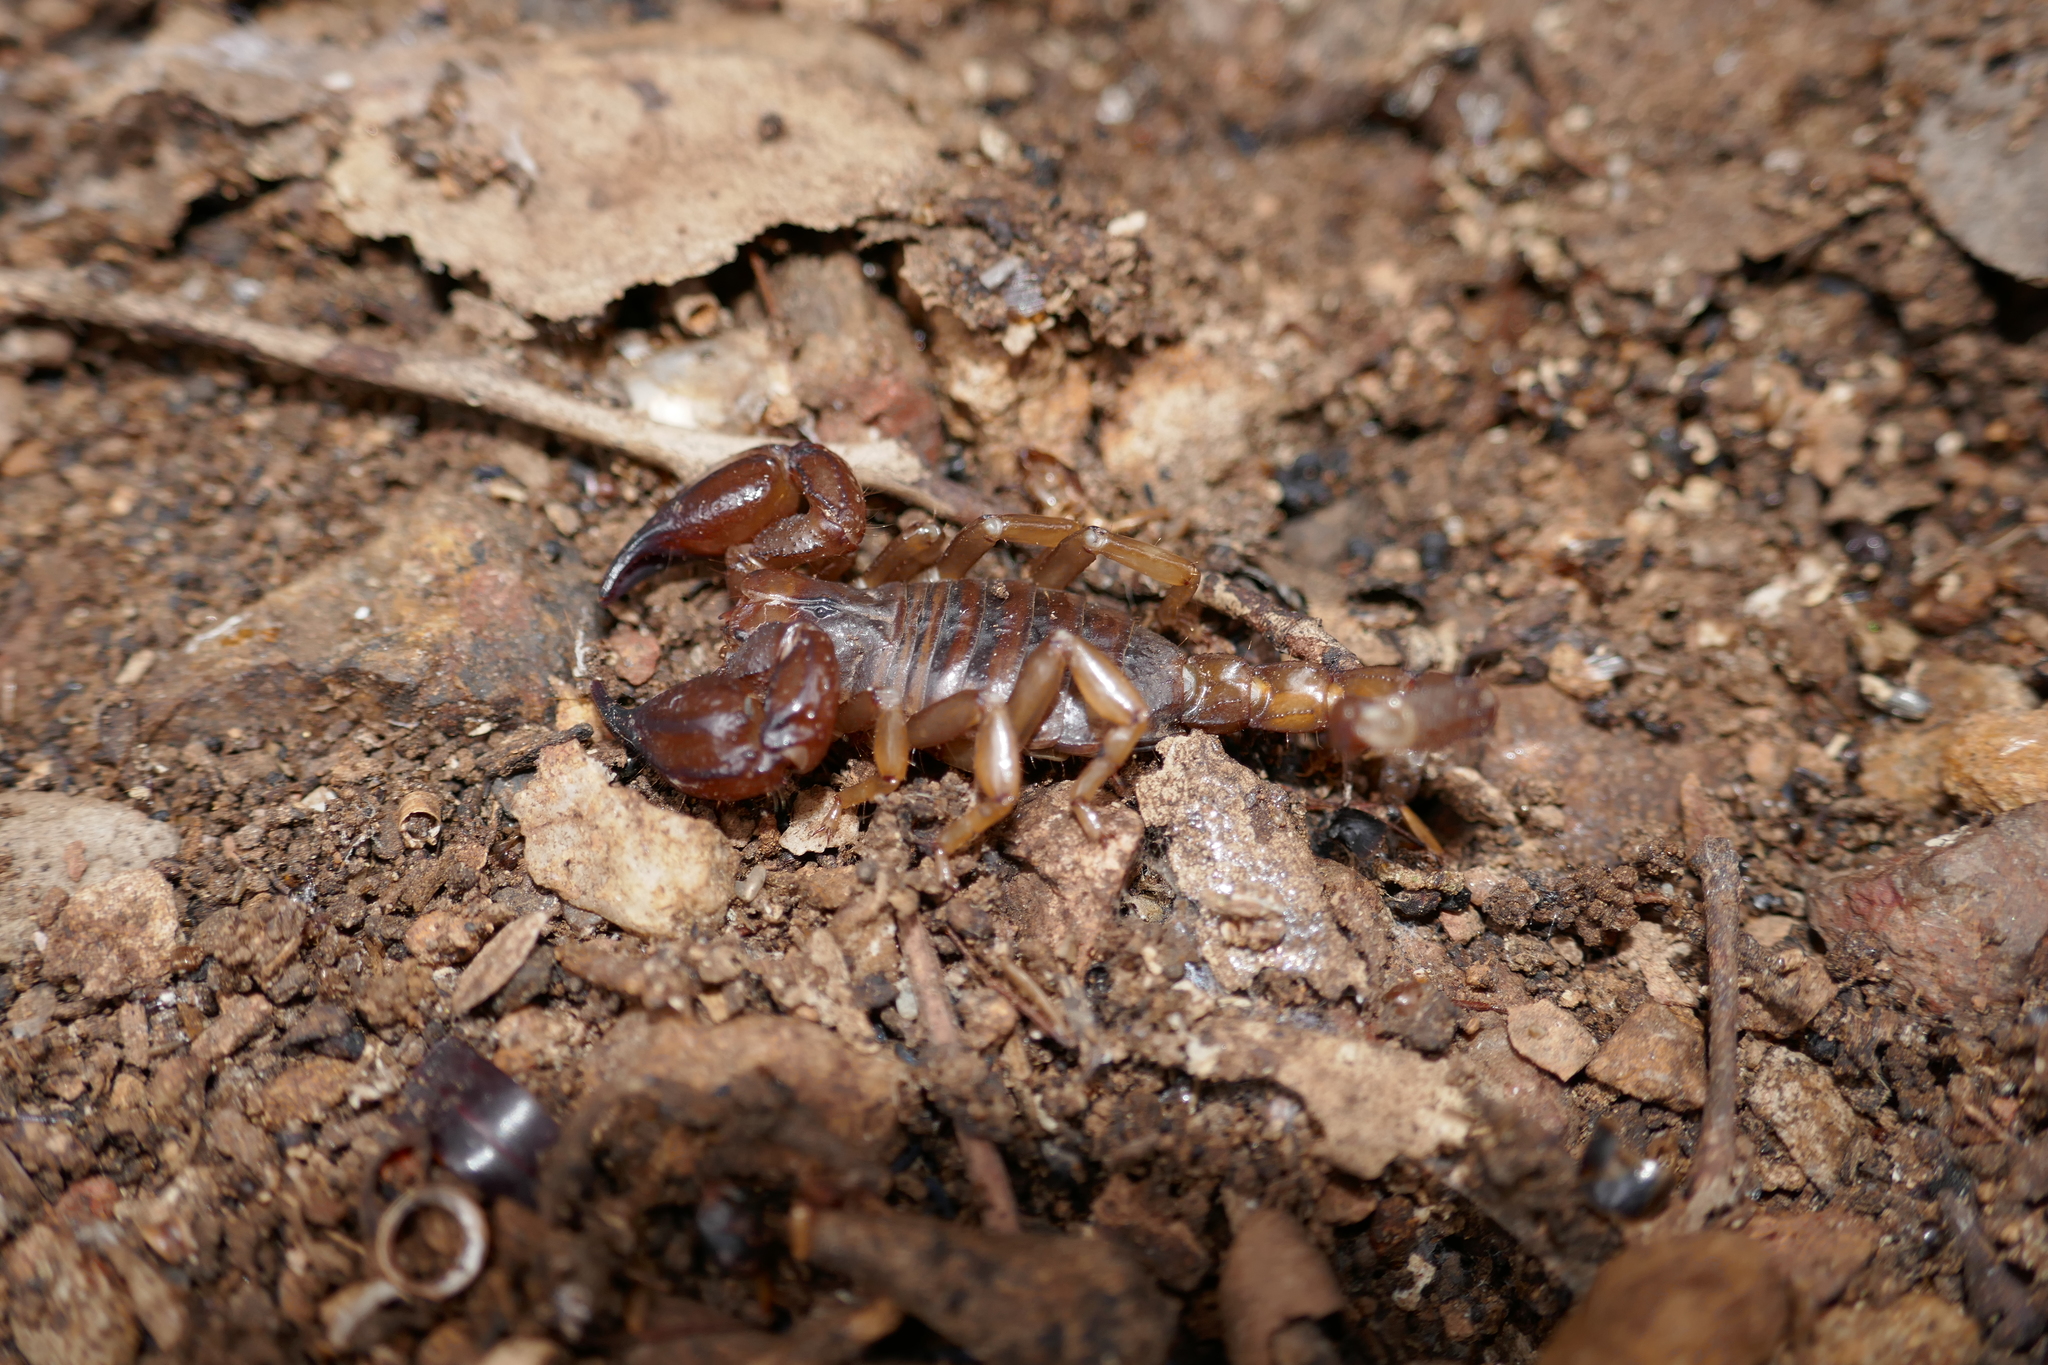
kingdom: Animalia
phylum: Arthropoda
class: Arachnida
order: Scorpiones
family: Scorpionidae
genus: Urodacus
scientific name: Urodacus manicatus
